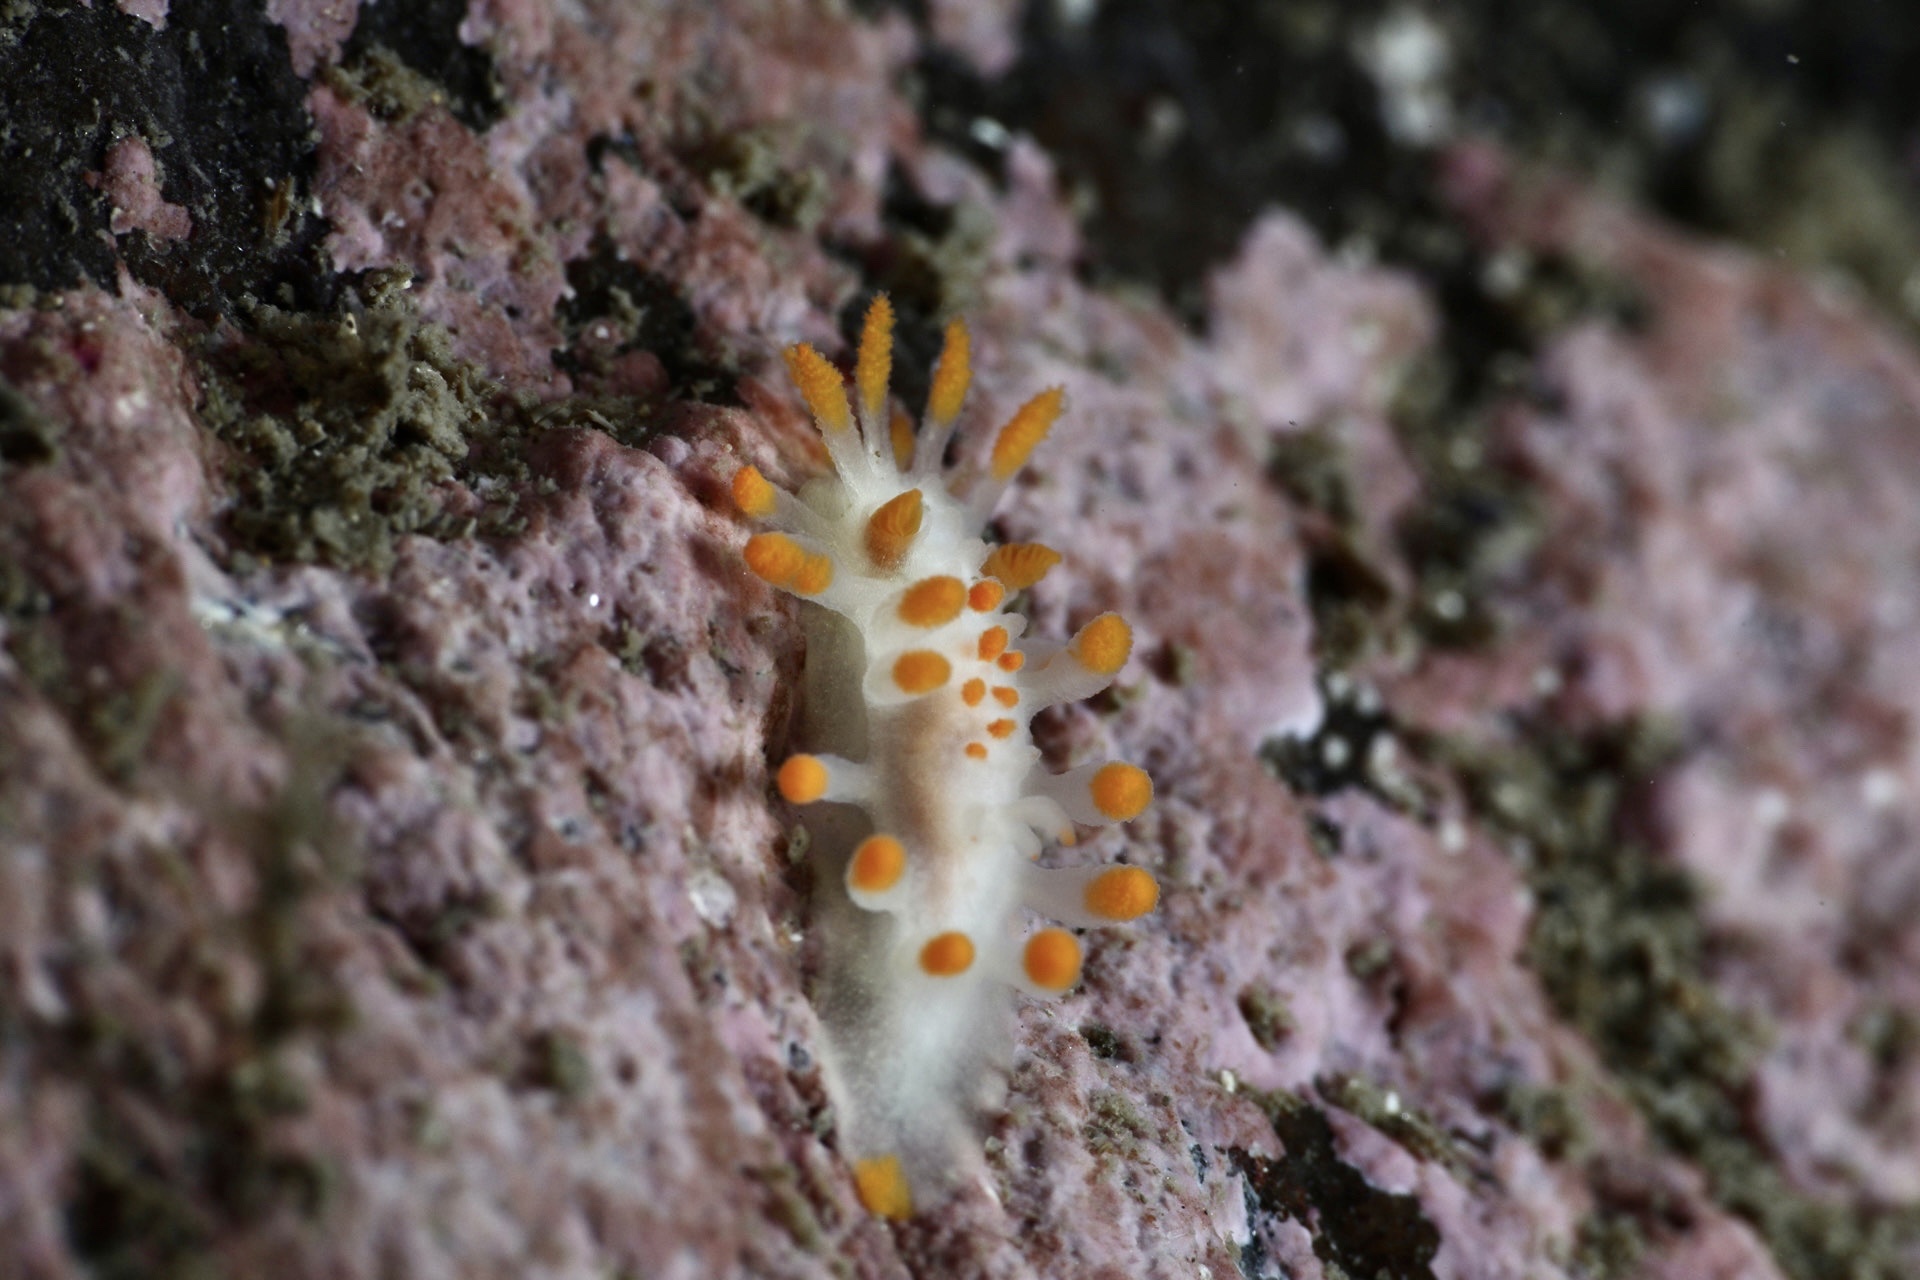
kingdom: Animalia
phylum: Mollusca
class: Gastropoda
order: Nudibranchia
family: Polyceridae
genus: Limacia
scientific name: Limacia clavigera
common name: Orange-clubbed sea slug
